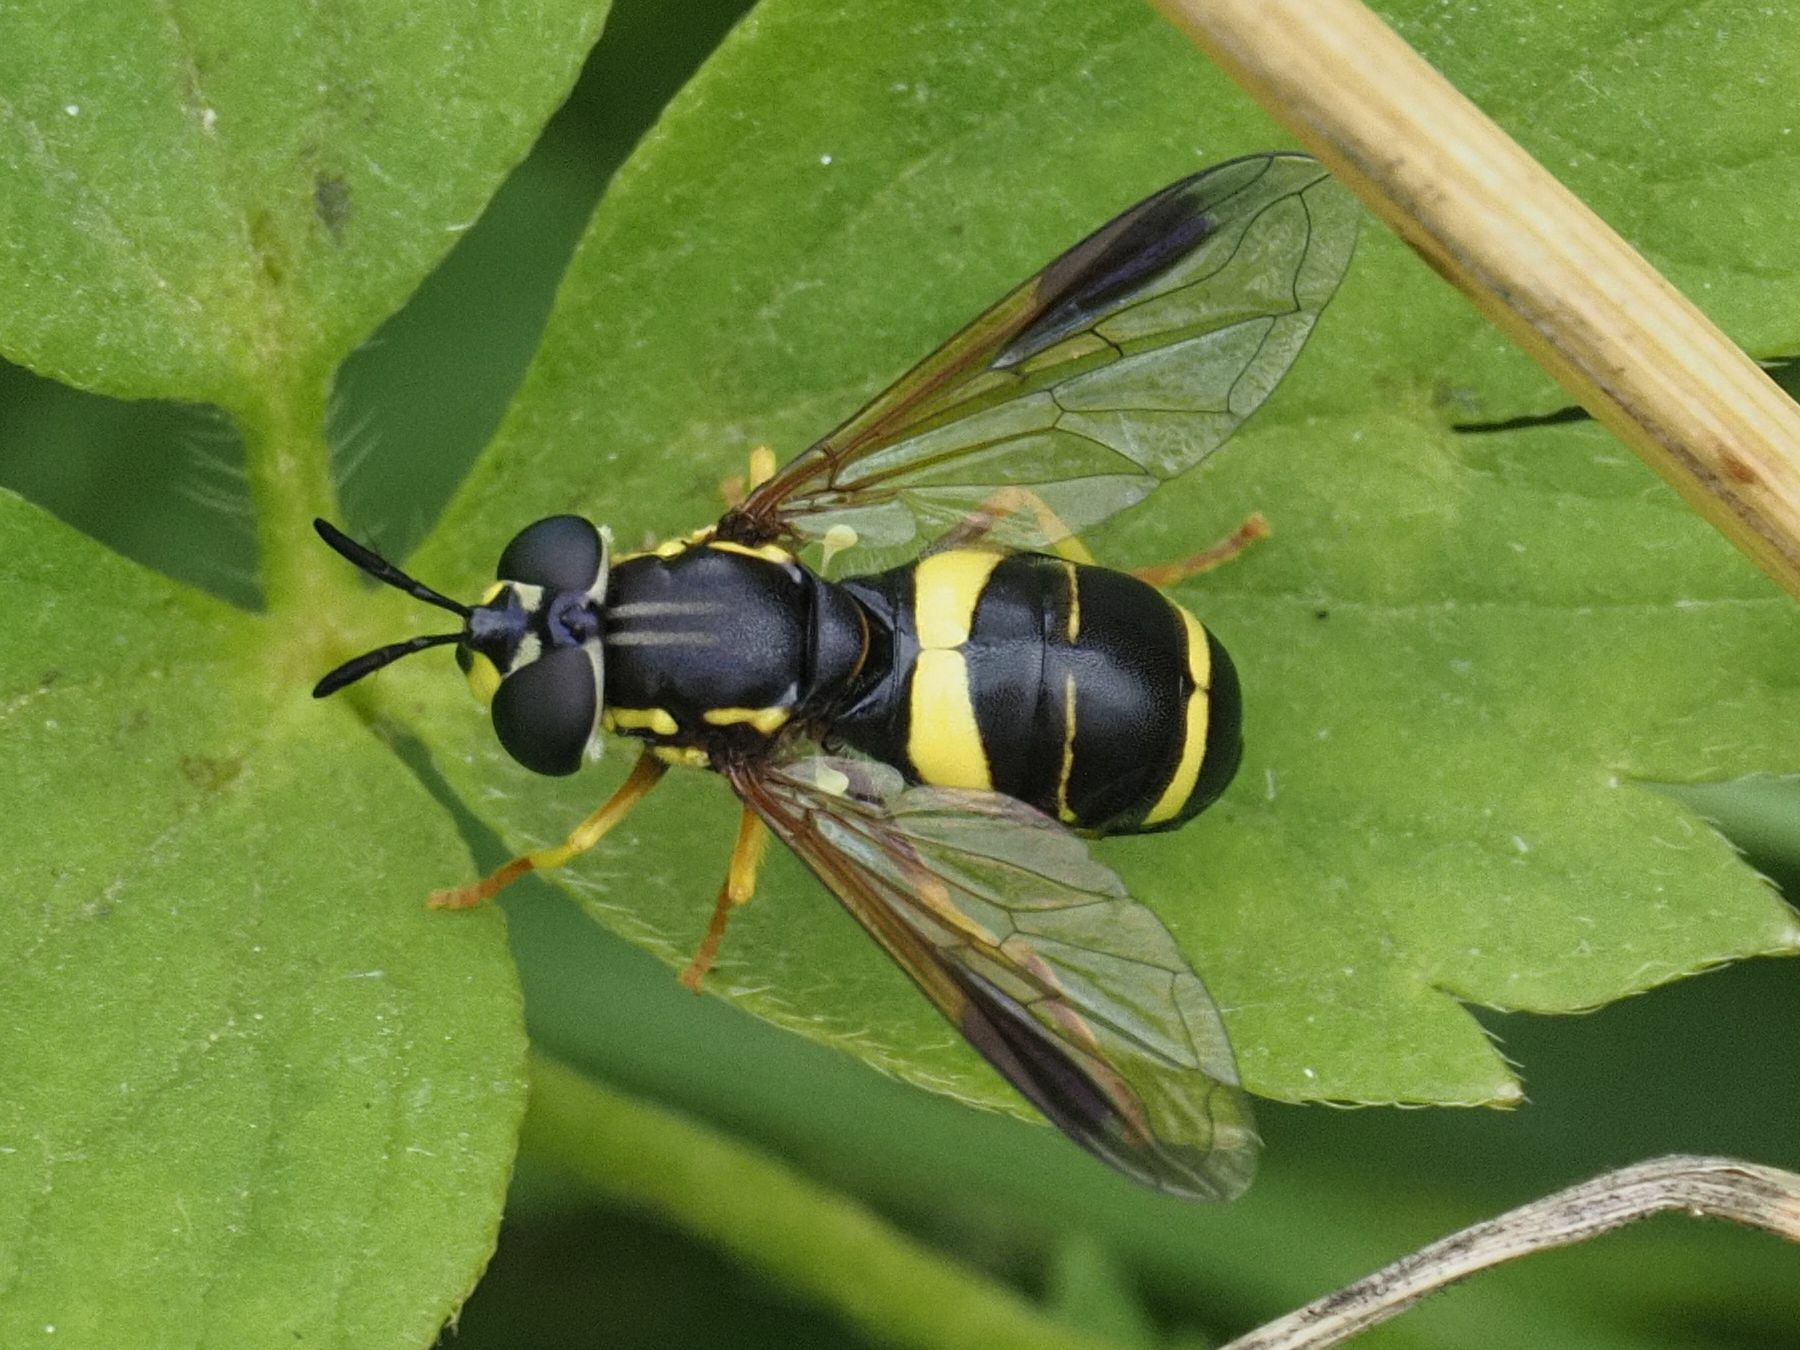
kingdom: Animalia
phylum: Arthropoda
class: Insecta
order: Diptera
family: Syrphidae
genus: Chrysotoxum
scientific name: Chrysotoxum bicincta
